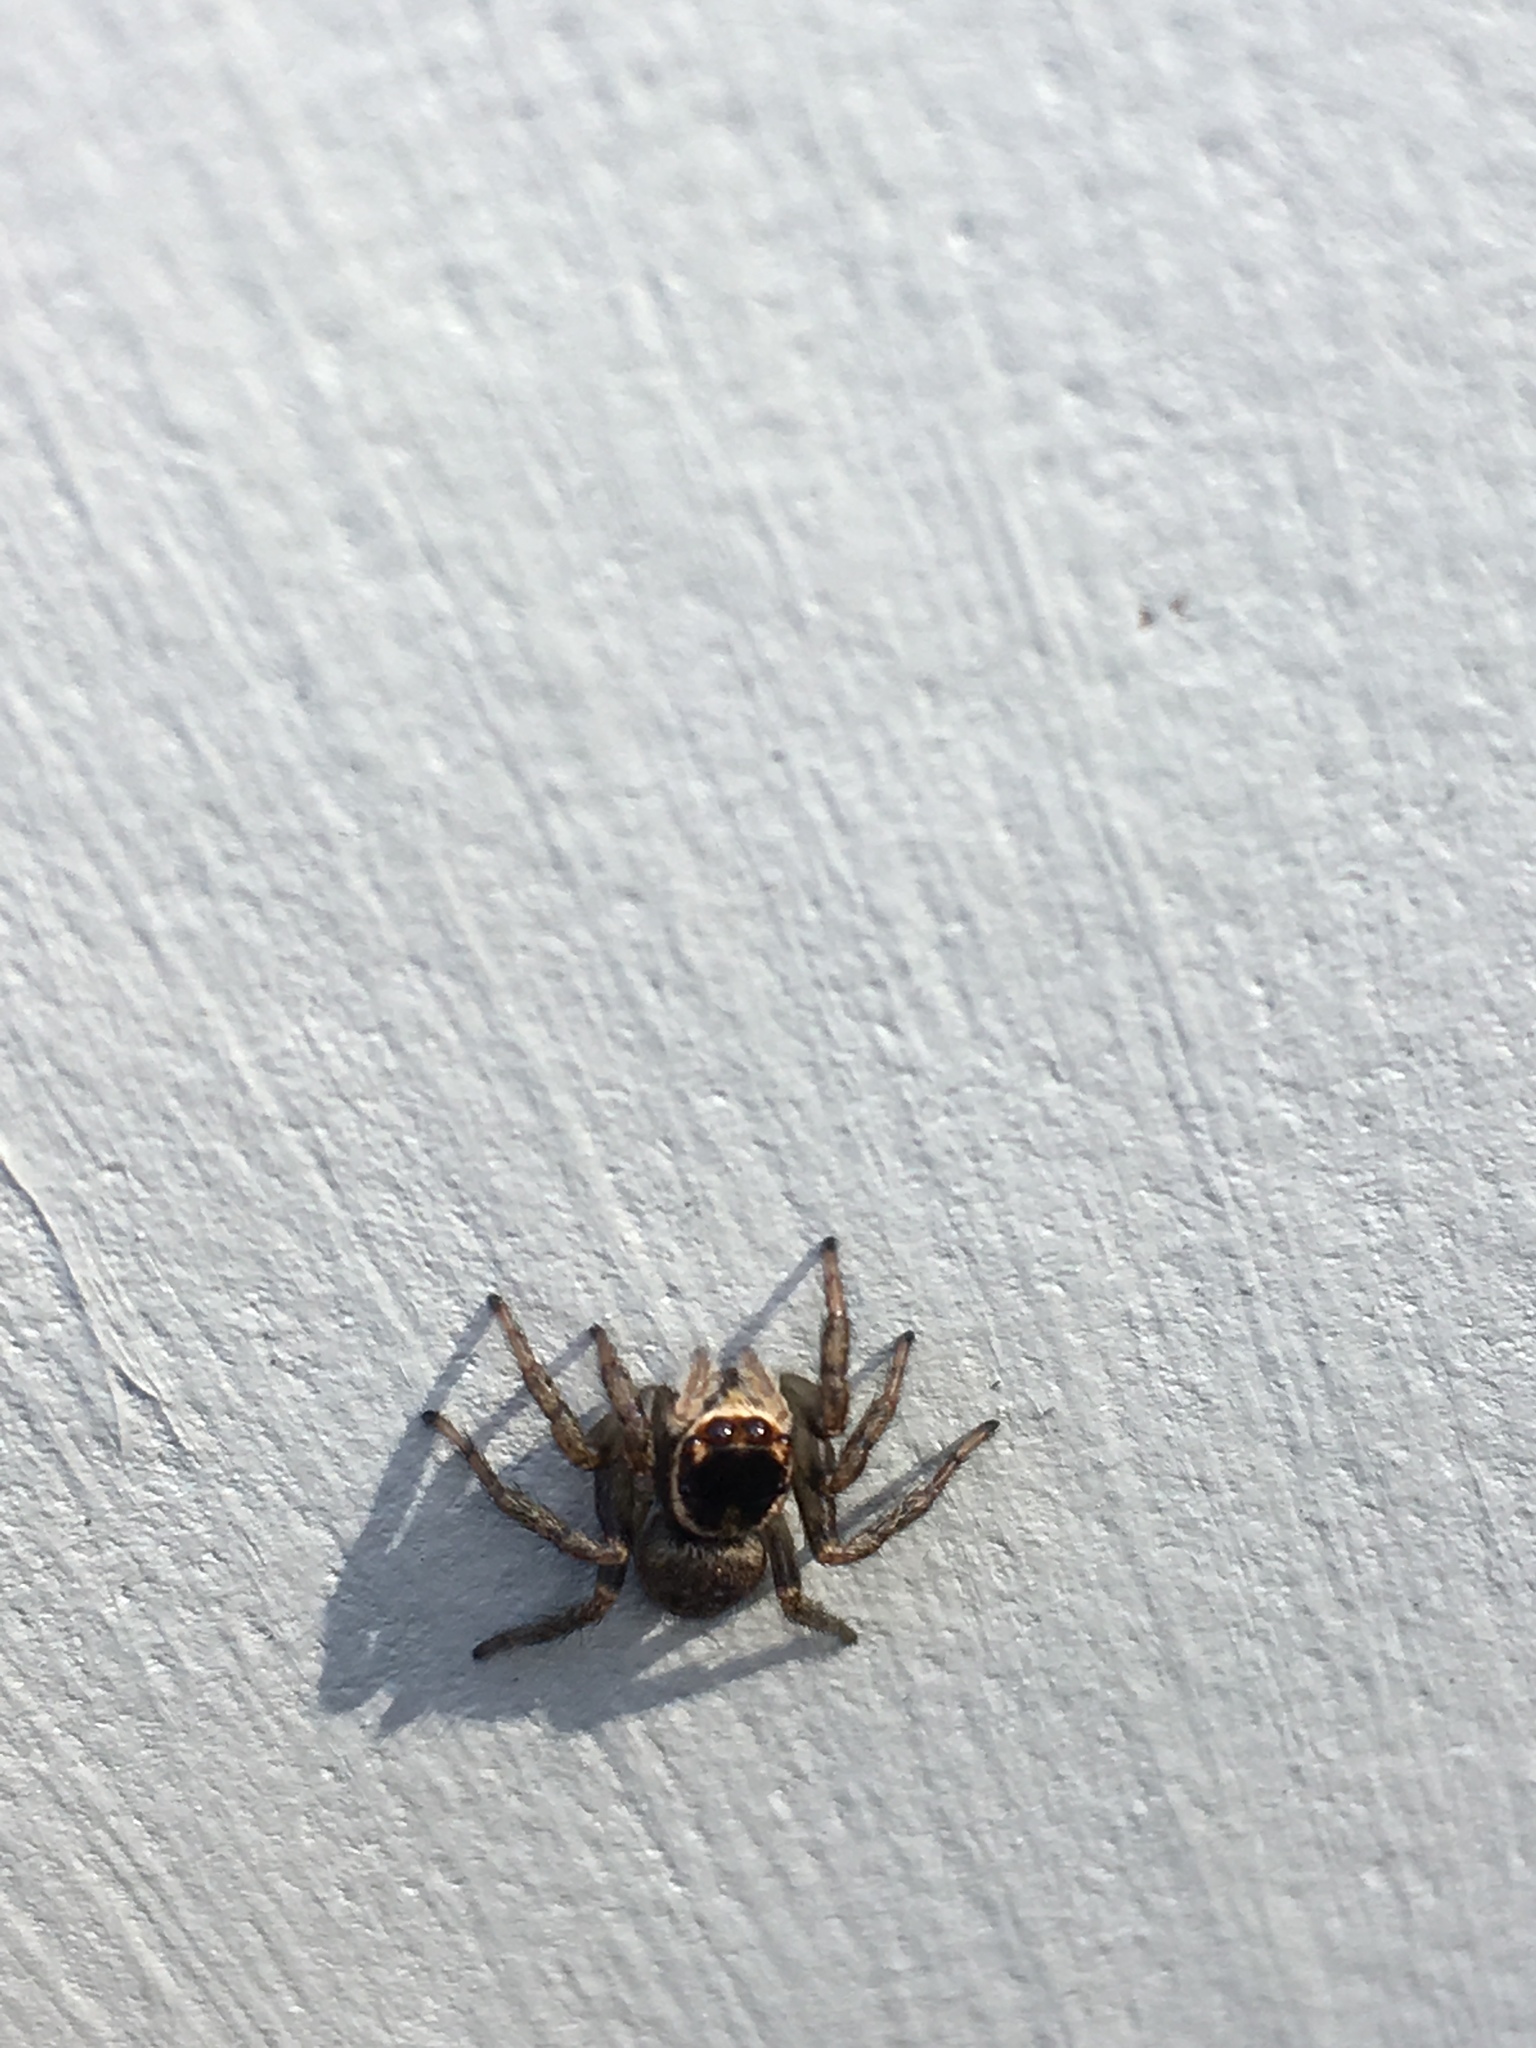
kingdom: Animalia
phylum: Arthropoda
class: Arachnida
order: Araneae
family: Salticidae
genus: Maratus
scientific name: Maratus griseus
